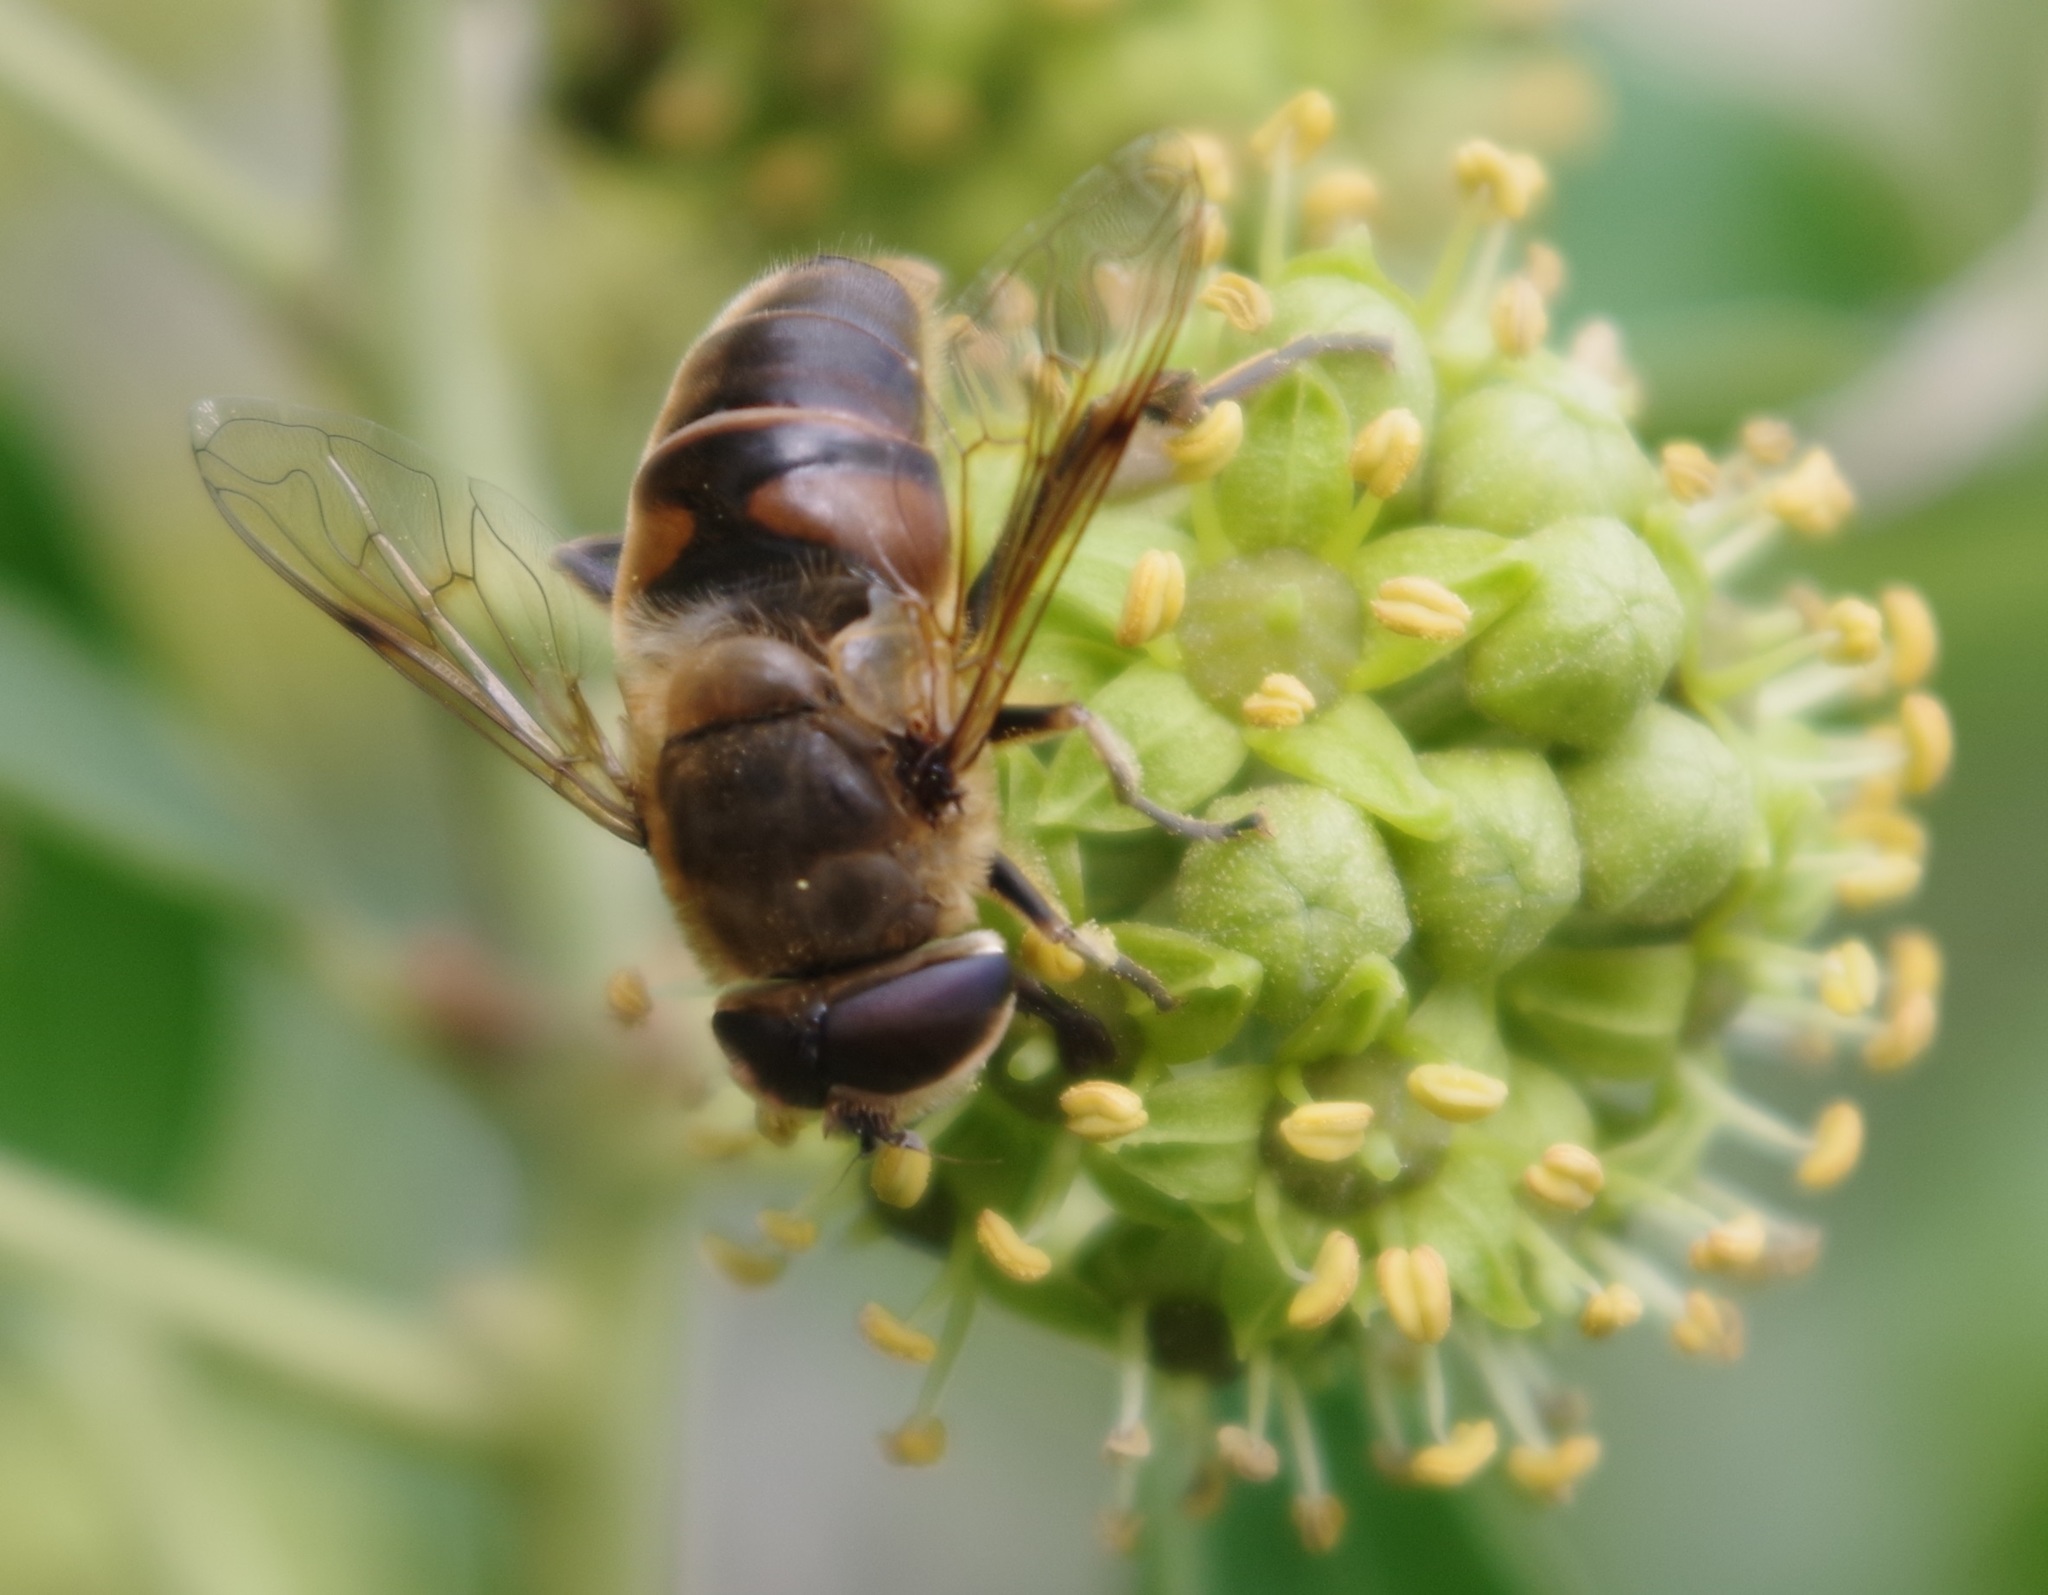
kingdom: Animalia
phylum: Arthropoda
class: Insecta
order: Diptera
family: Syrphidae
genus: Eristalis
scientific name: Eristalis tenax
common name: Drone fly
